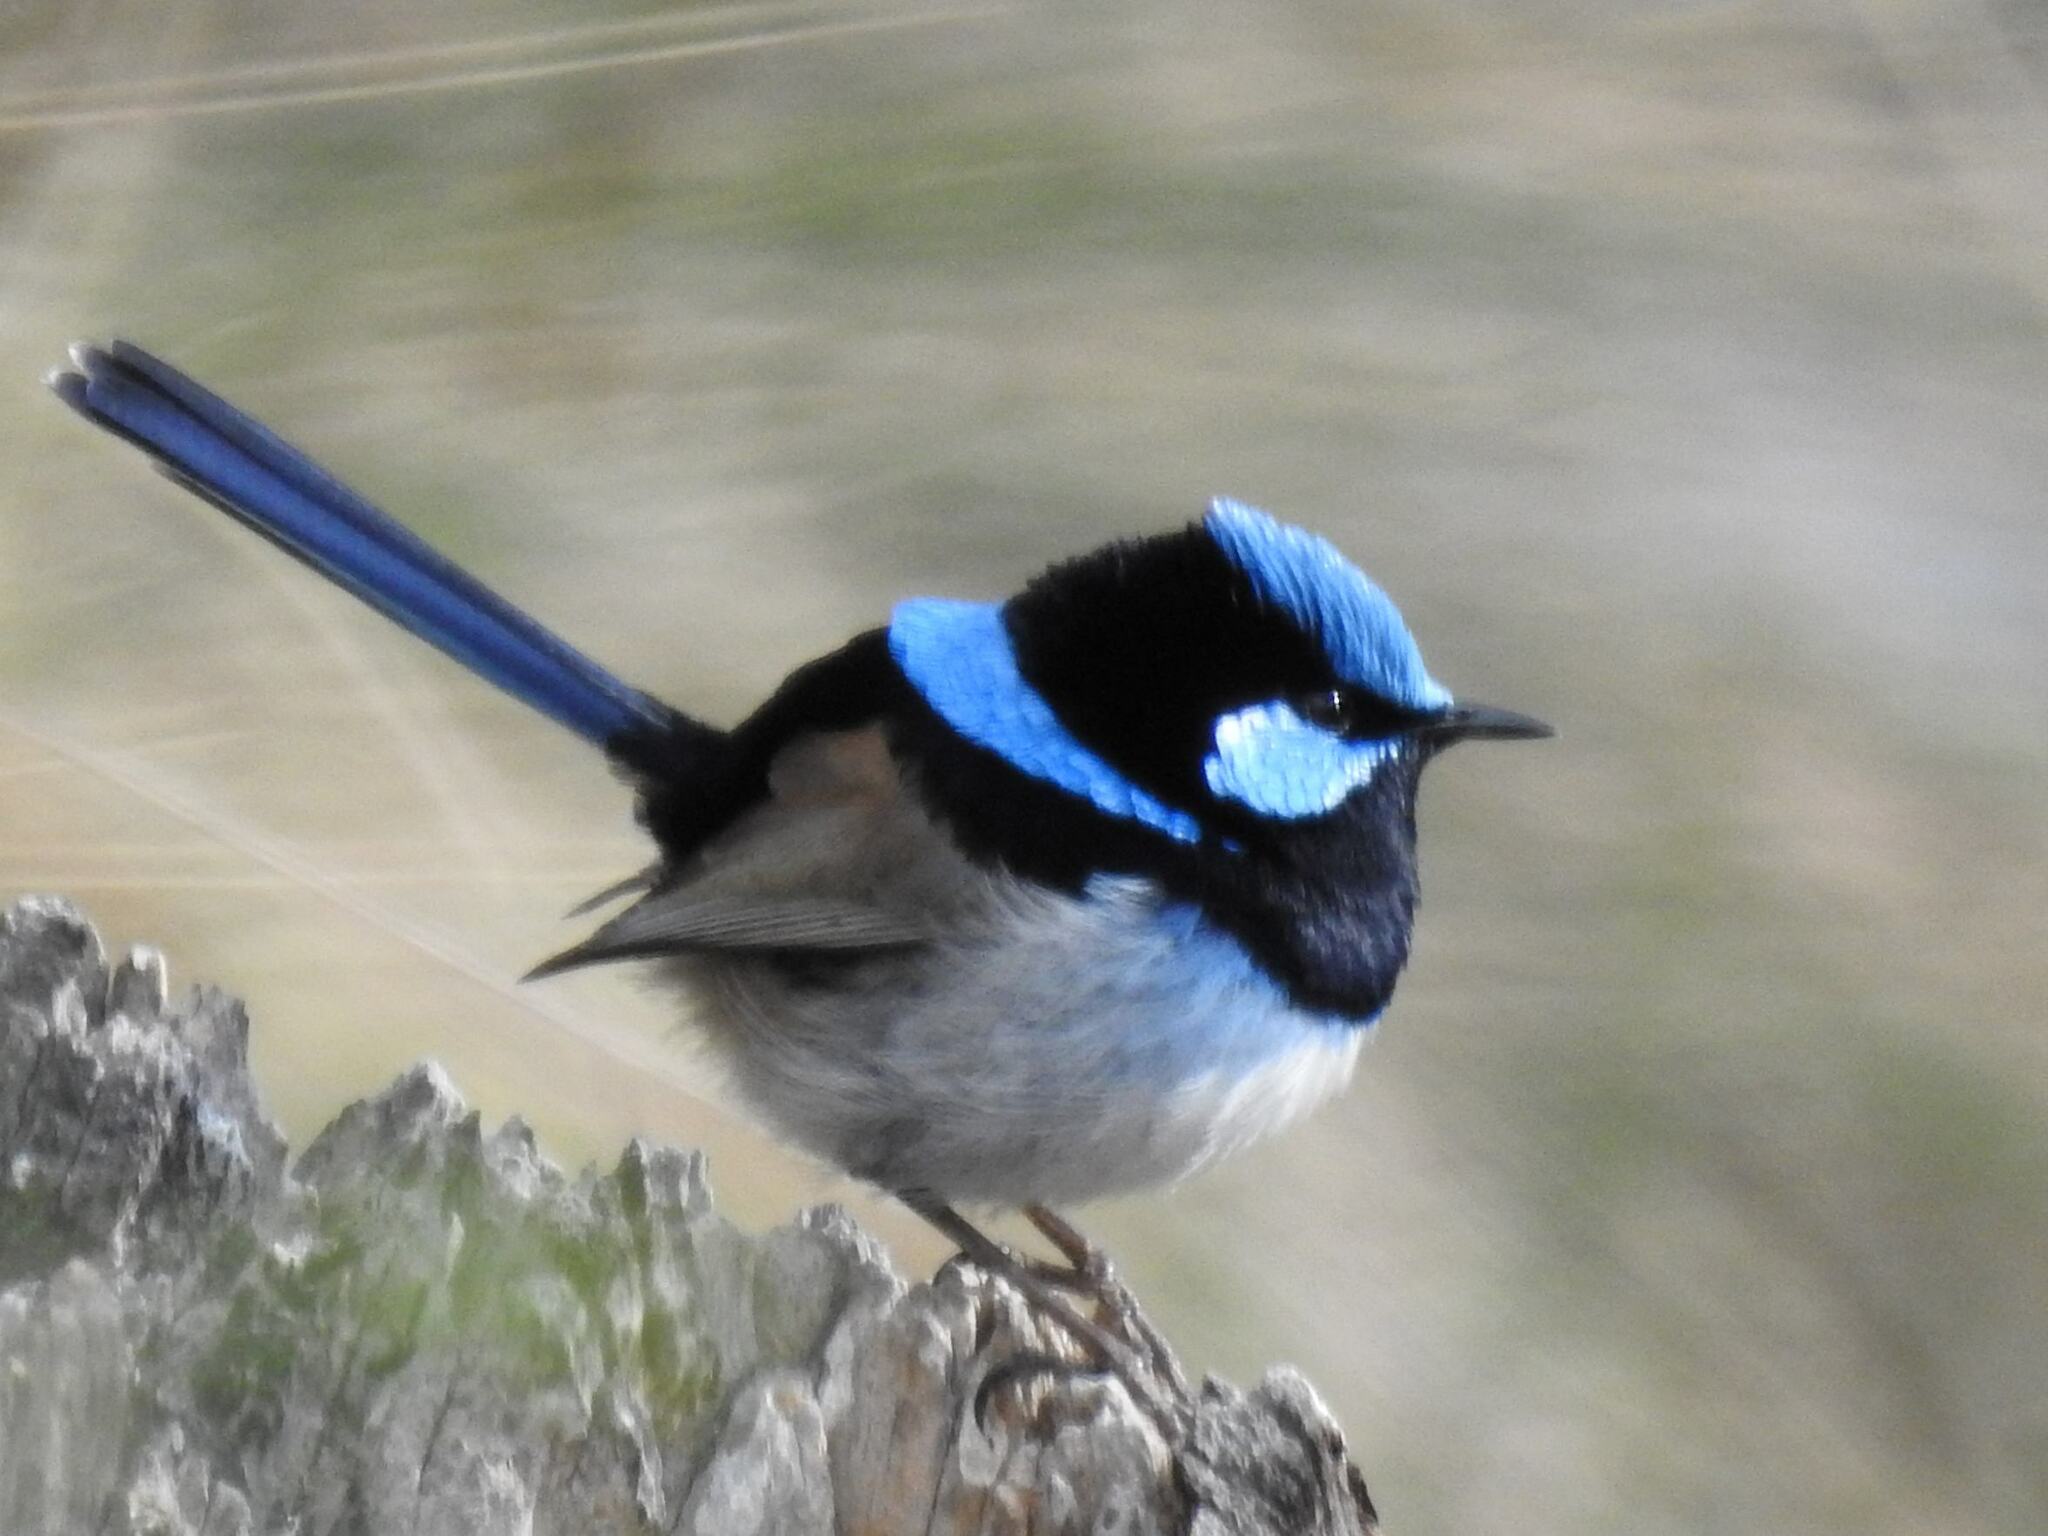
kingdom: Animalia
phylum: Chordata
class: Aves
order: Passeriformes
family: Maluridae
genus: Malurus
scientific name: Malurus cyaneus
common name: Superb fairywren
